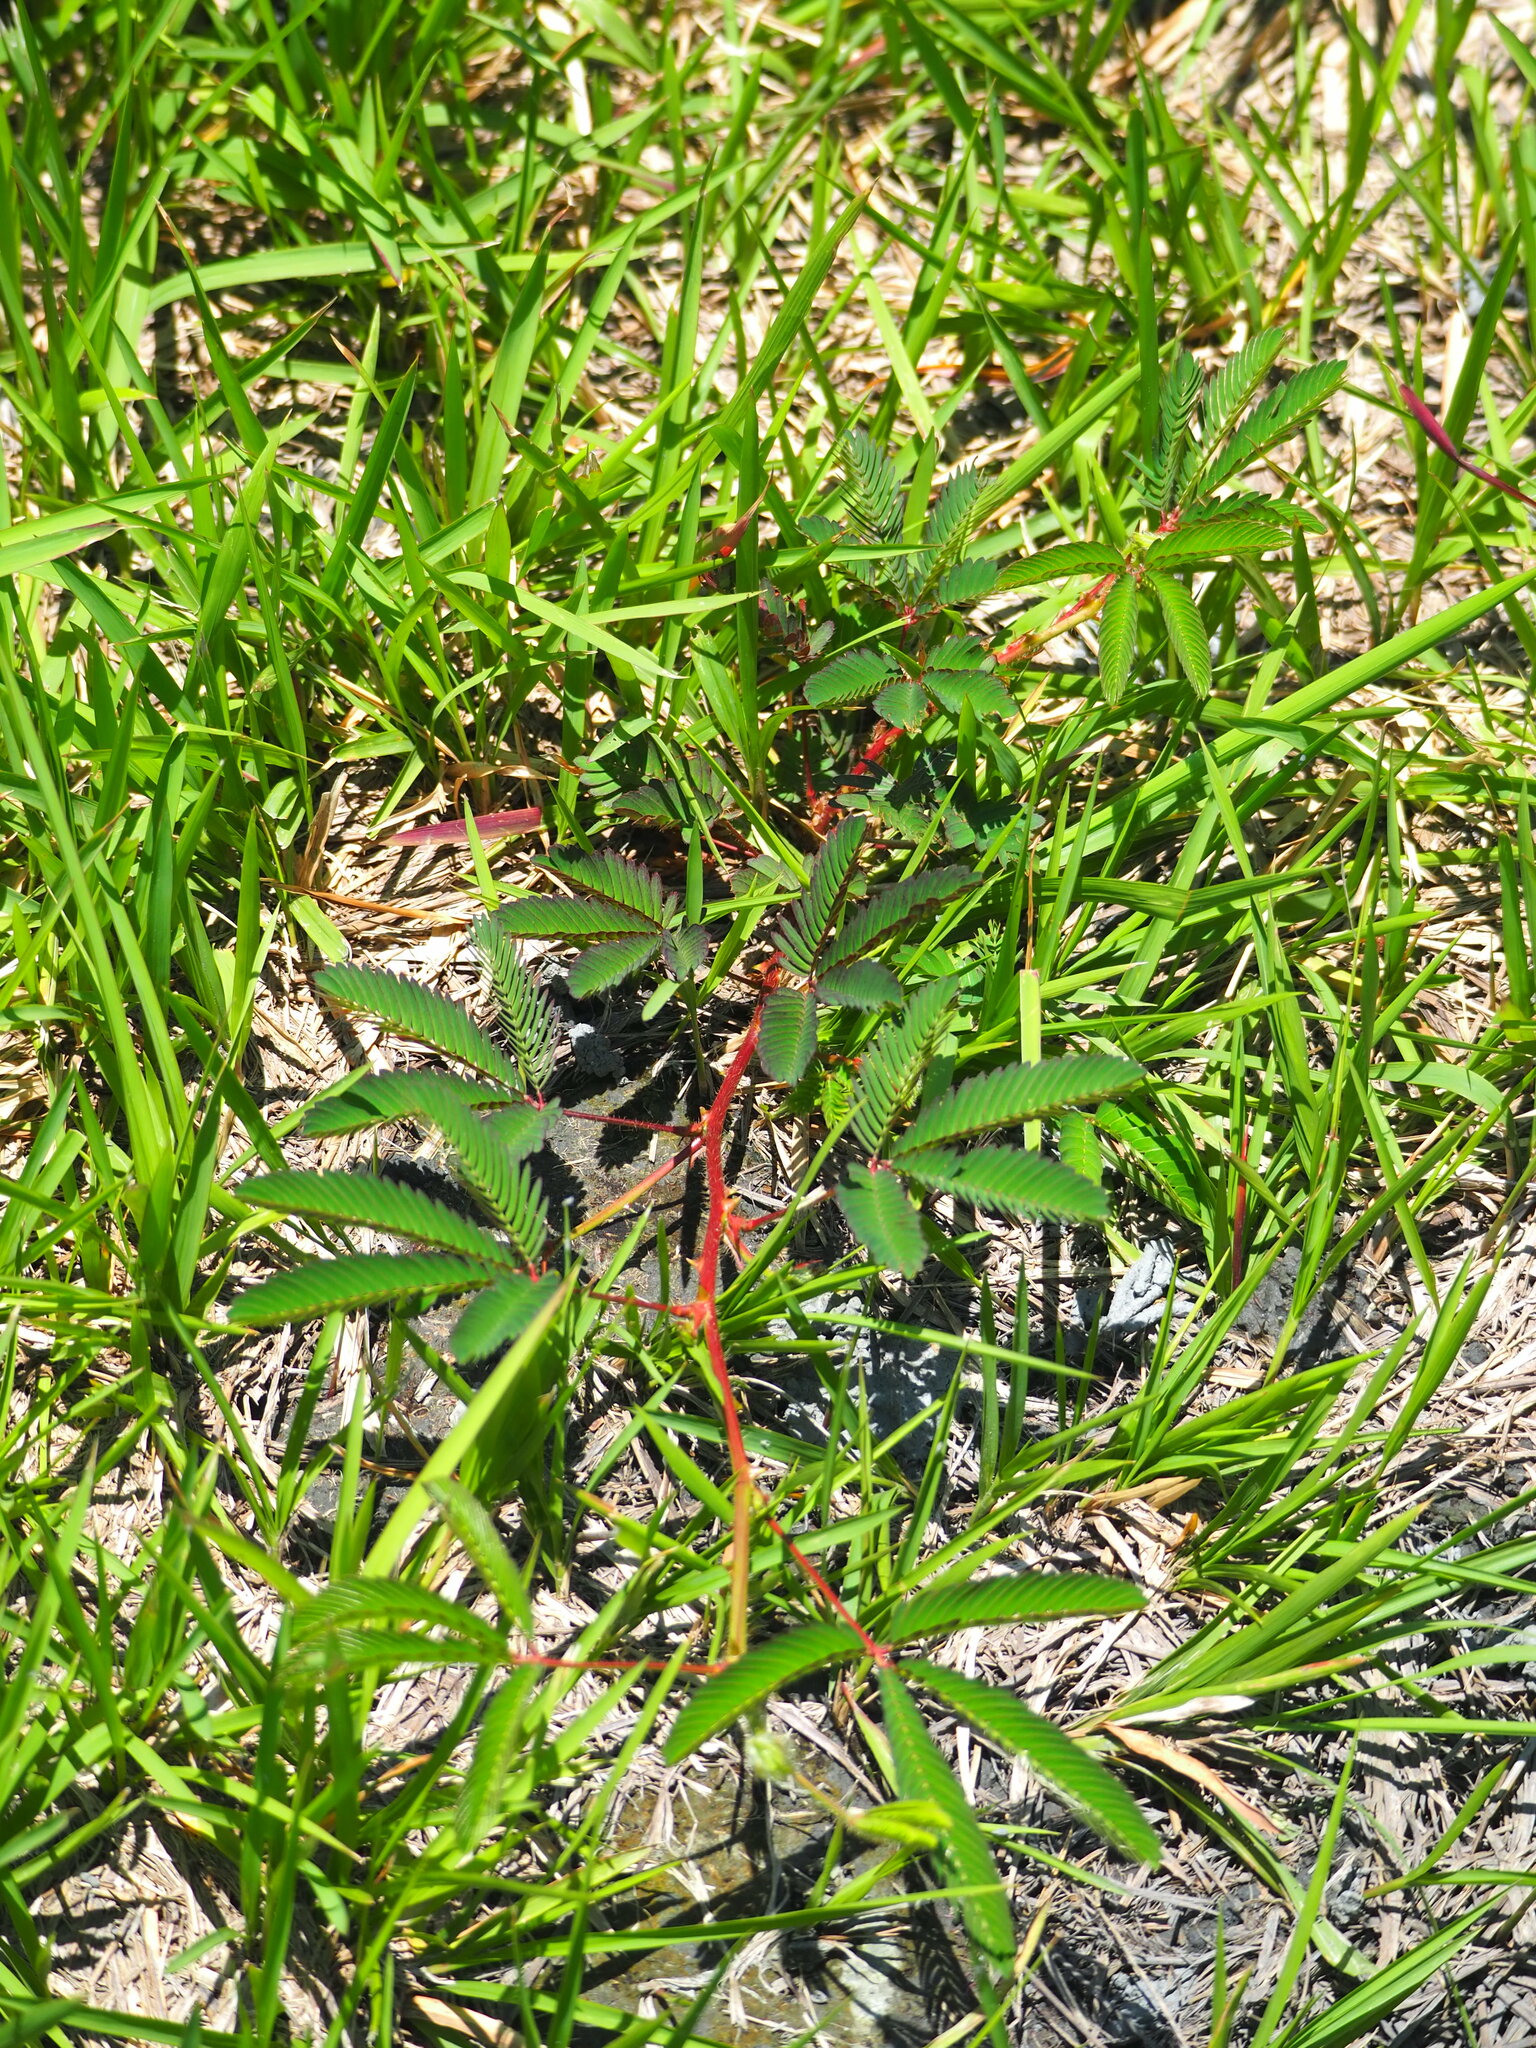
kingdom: Plantae
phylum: Tracheophyta
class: Magnoliopsida
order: Fabales
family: Fabaceae
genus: Mimosa
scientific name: Mimosa pudica
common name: Sensitive plant
